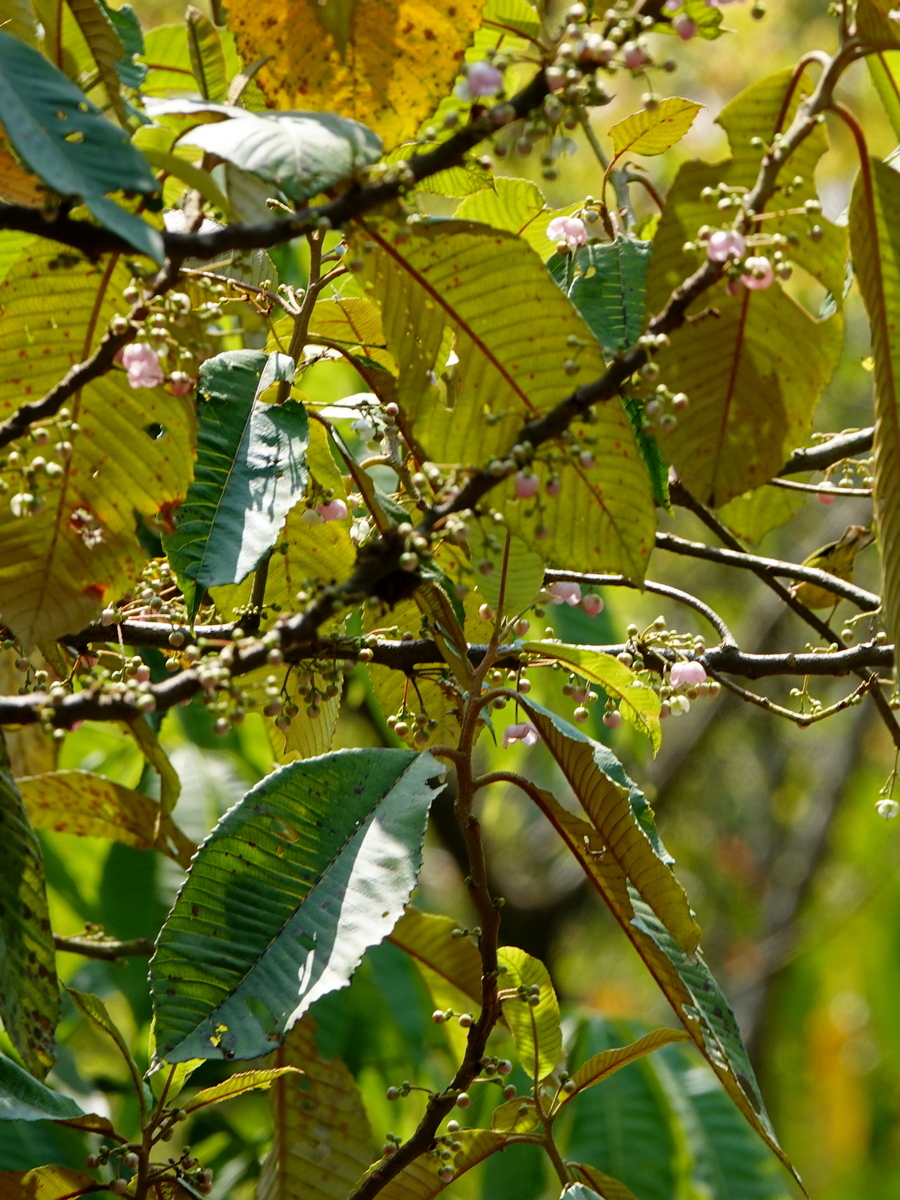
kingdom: Plantae
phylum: Tracheophyta
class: Magnoliopsida
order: Ericales
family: Actinidiaceae
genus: Saurauia
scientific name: Saurauia roxburghii
